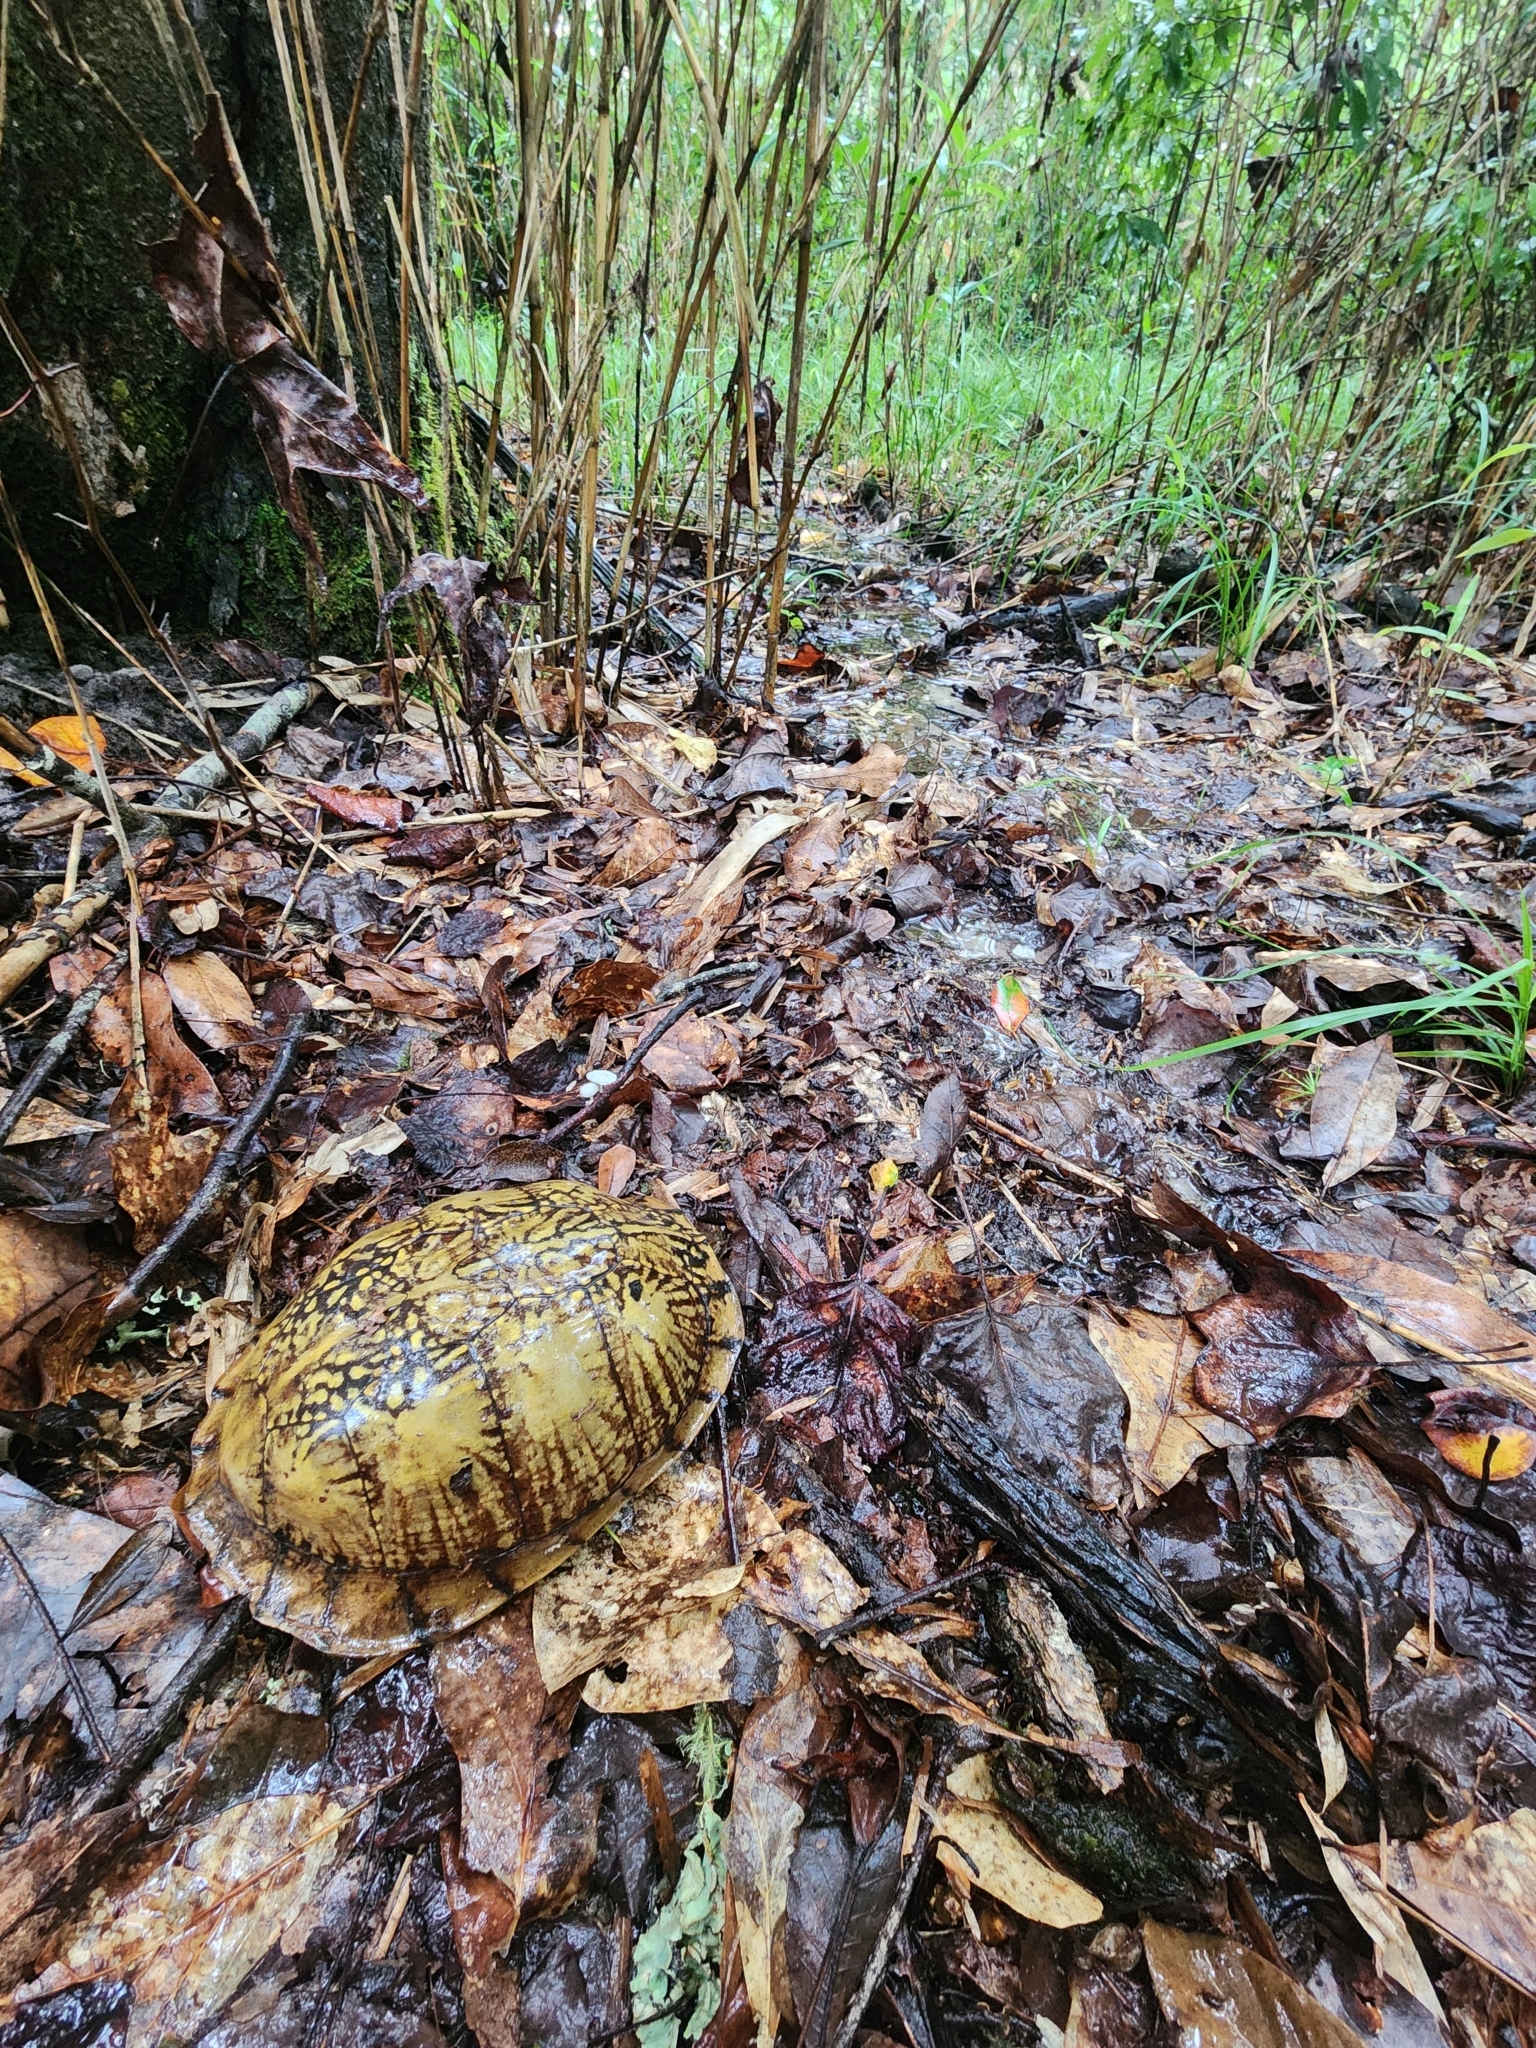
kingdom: Animalia
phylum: Chordata
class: Testudines
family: Emydidae
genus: Terrapene
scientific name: Terrapene carolina
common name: Common box turtle
